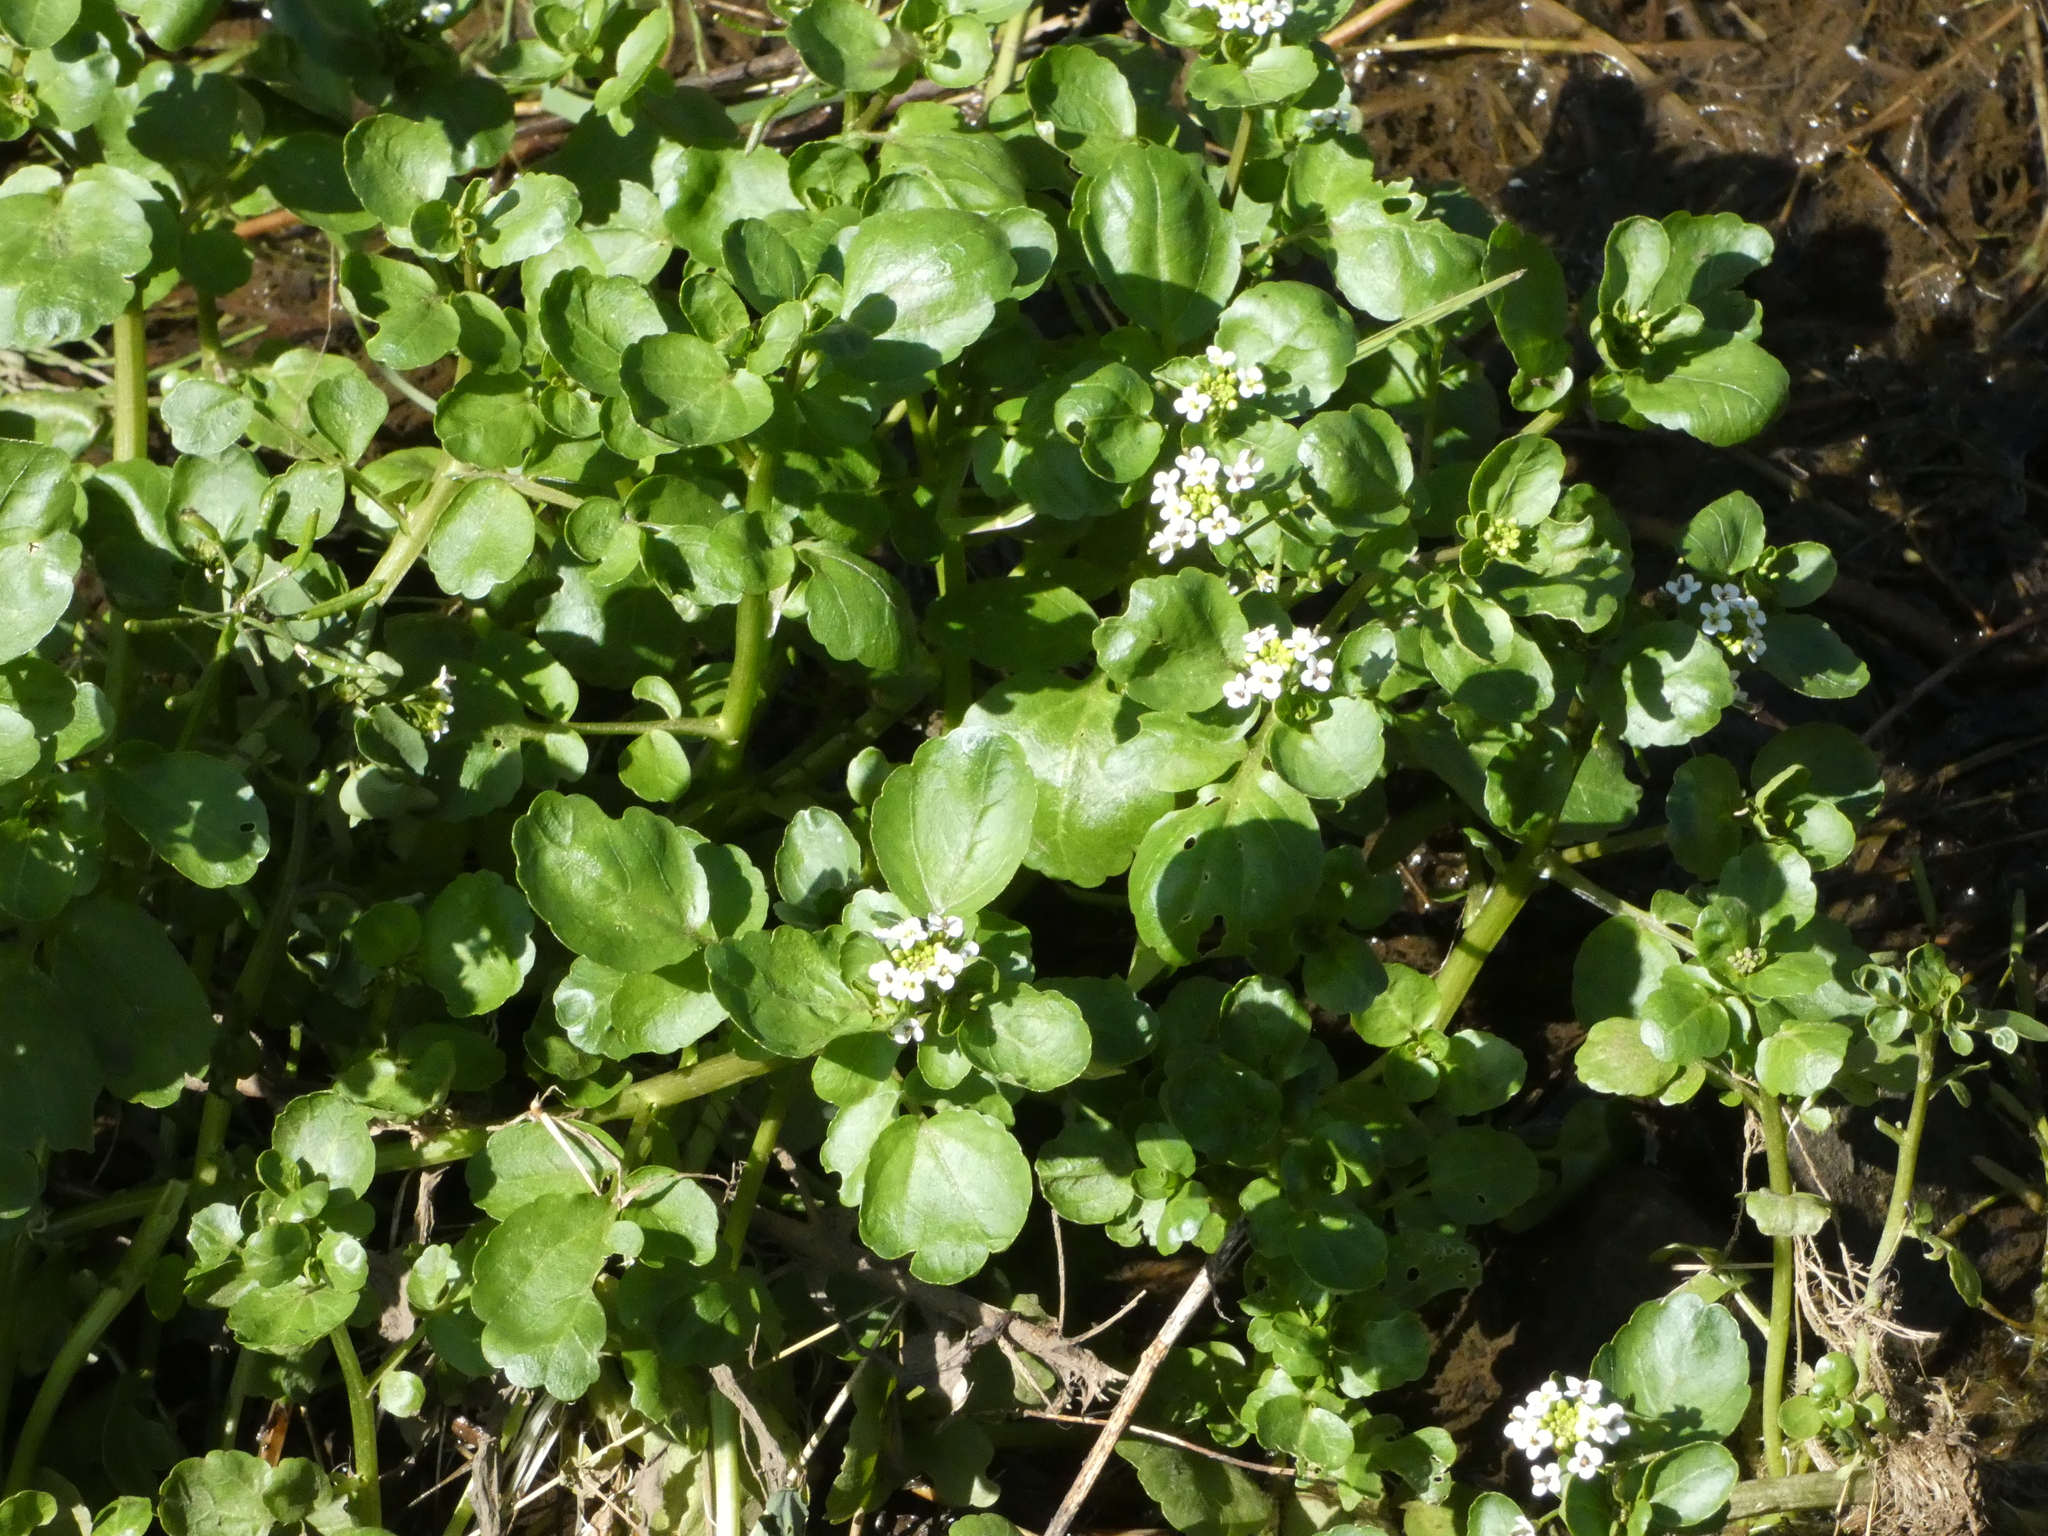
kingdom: Plantae
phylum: Tracheophyta
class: Magnoliopsida
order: Brassicales
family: Brassicaceae
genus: Nasturtium
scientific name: Nasturtium officinale
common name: Watercress
